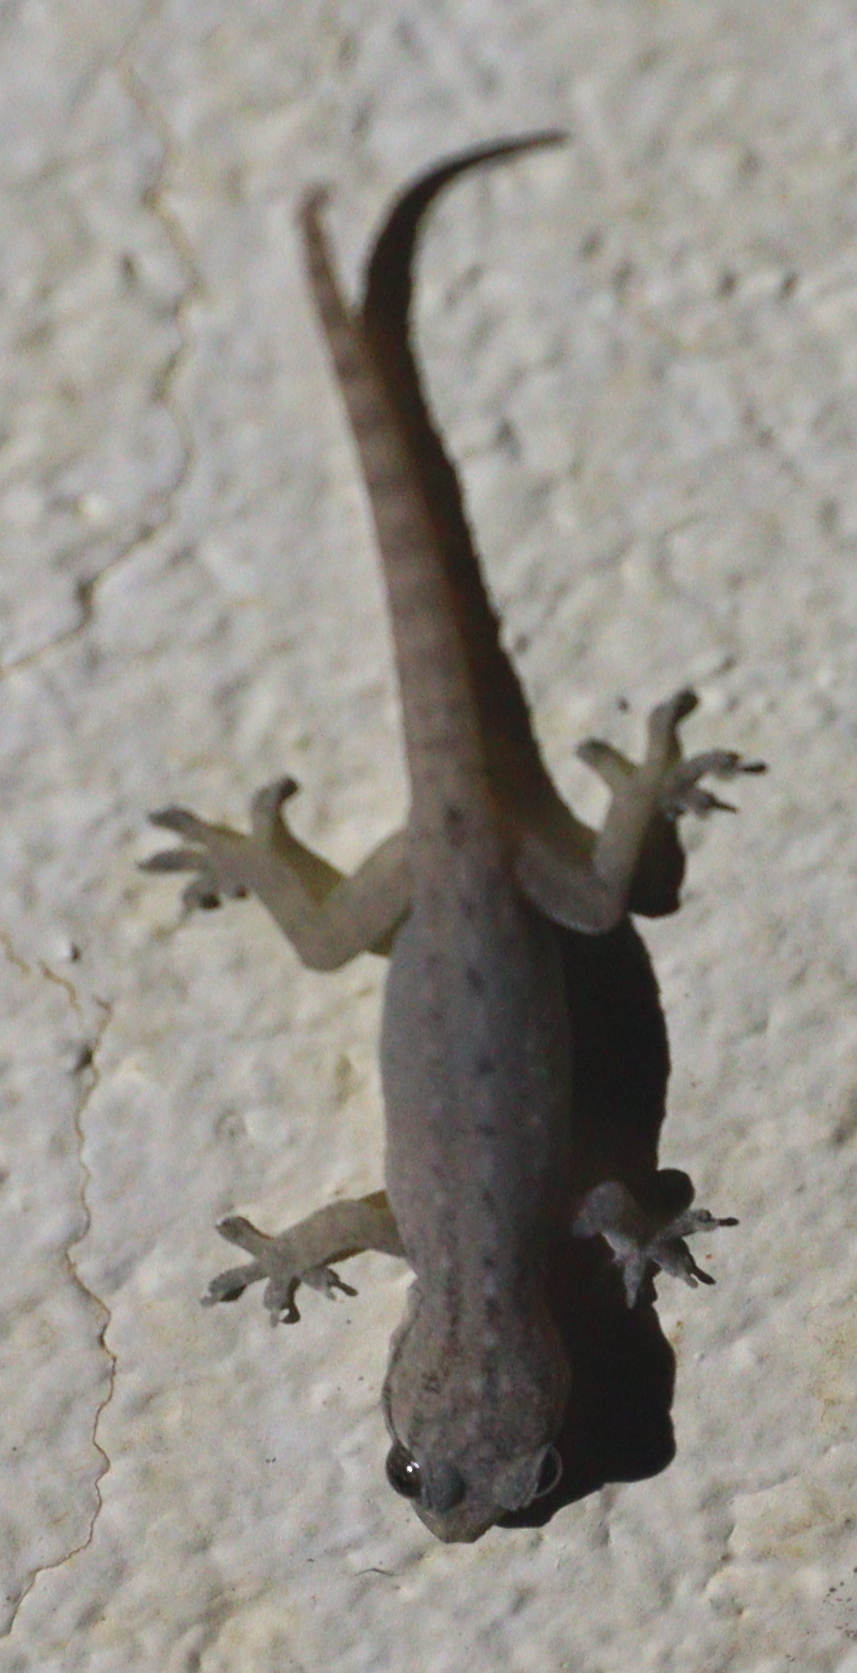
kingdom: Animalia
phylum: Chordata
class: Squamata
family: Gekkonidae
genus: Hemidactylus
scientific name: Hemidactylus frenatus
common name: Common house gecko
